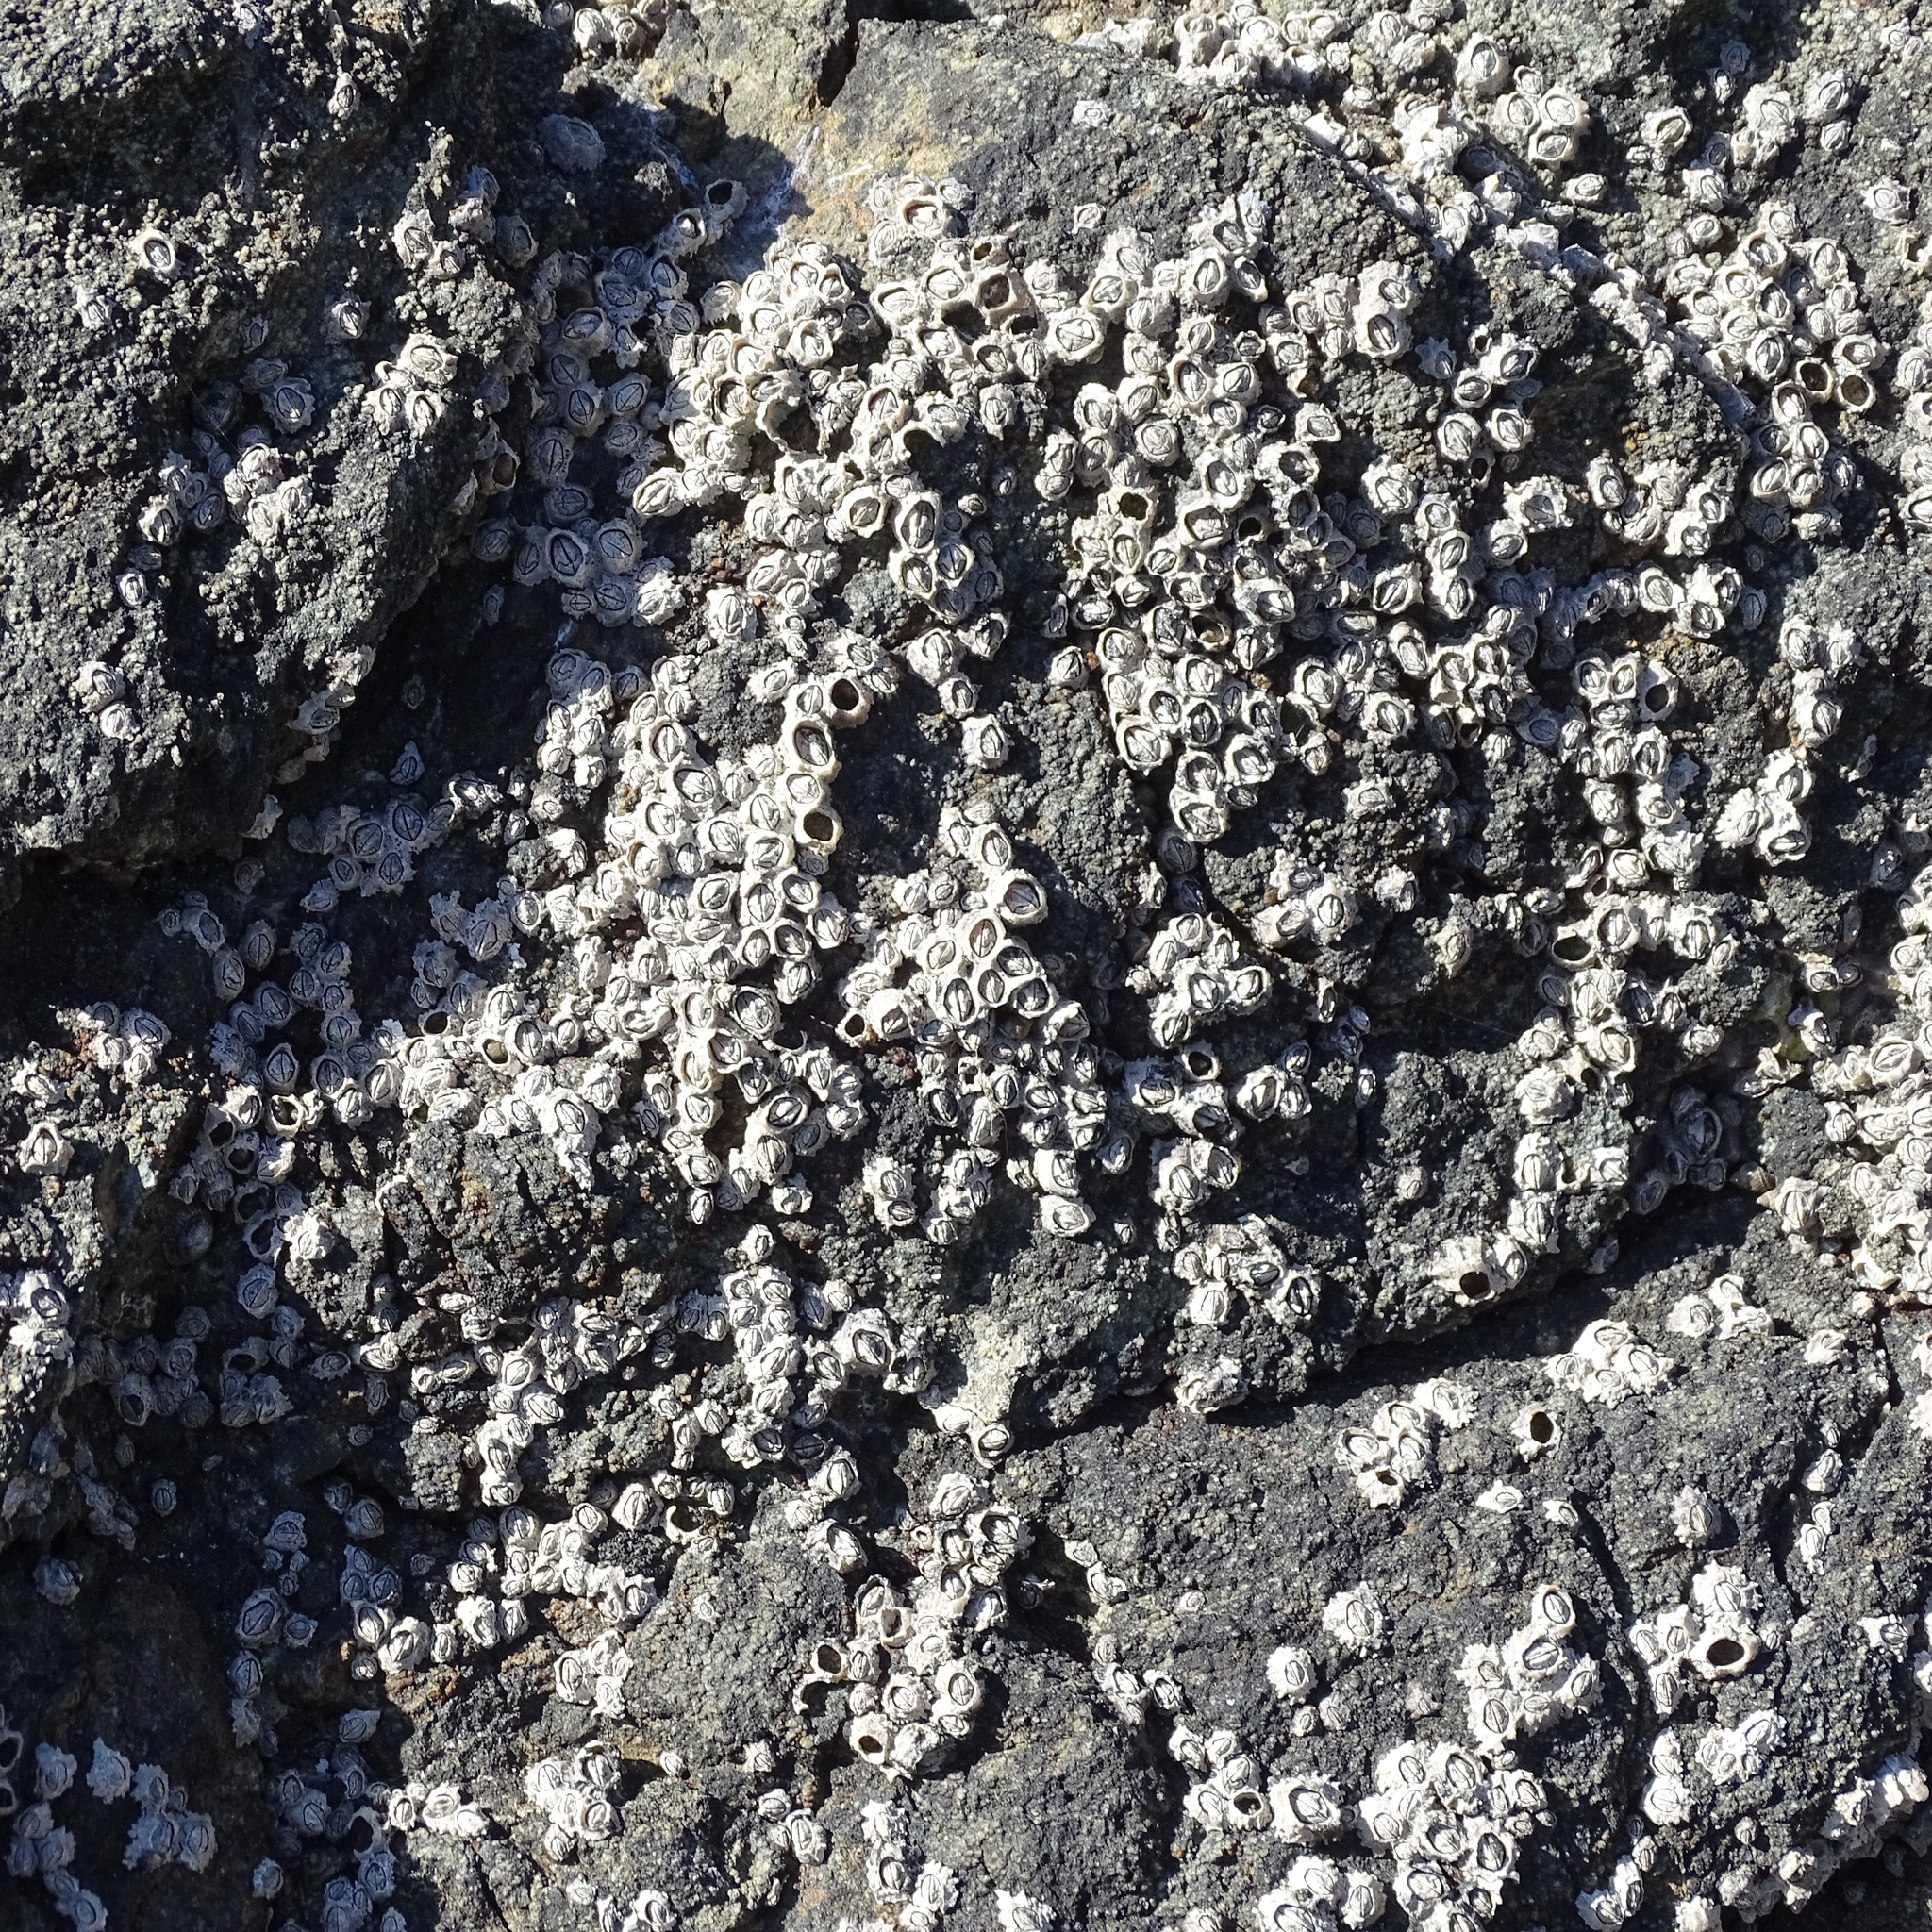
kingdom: Animalia
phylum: Arthropoda
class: Maxillopoda
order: Sessilia
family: Chthamalidae
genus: Jehlius
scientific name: Jehlius cirratus
